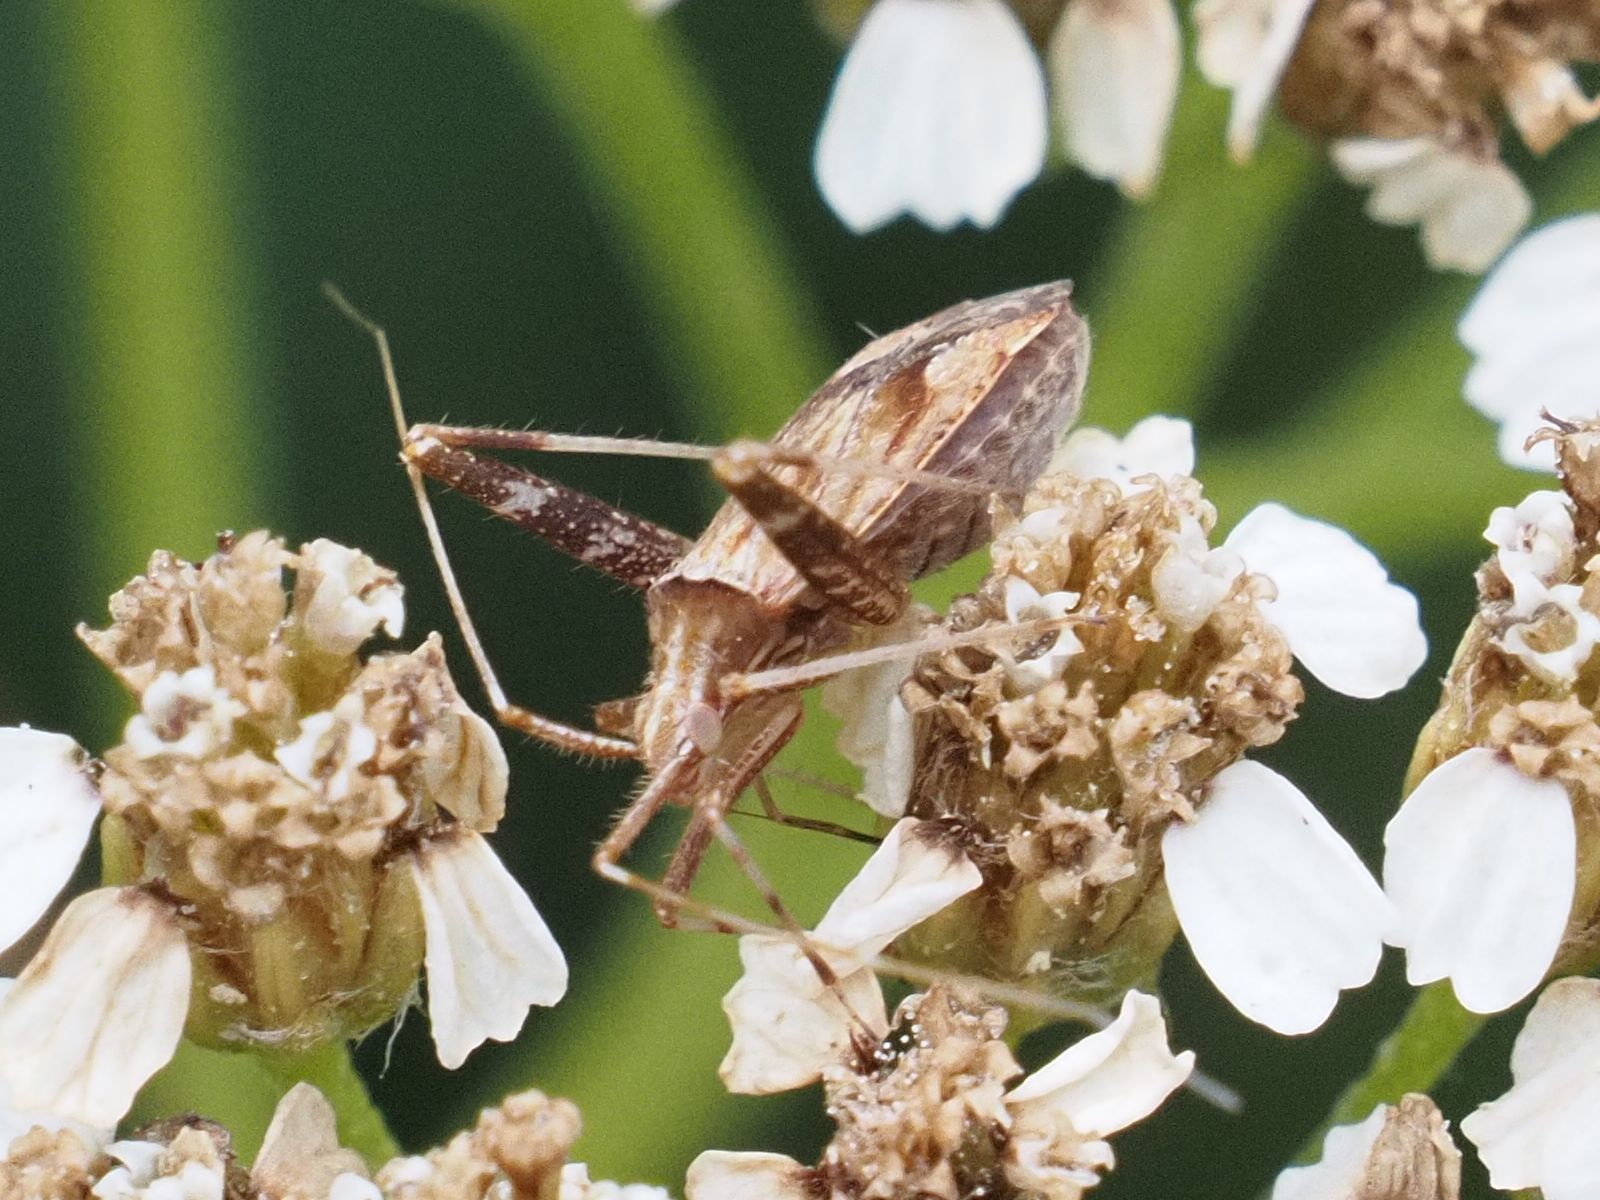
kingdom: Animalia
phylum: Arthropoda
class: Insecta
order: Hemiptera
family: Miridae
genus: Phytocoris
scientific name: Phytocoris varipes
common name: Plant bug
